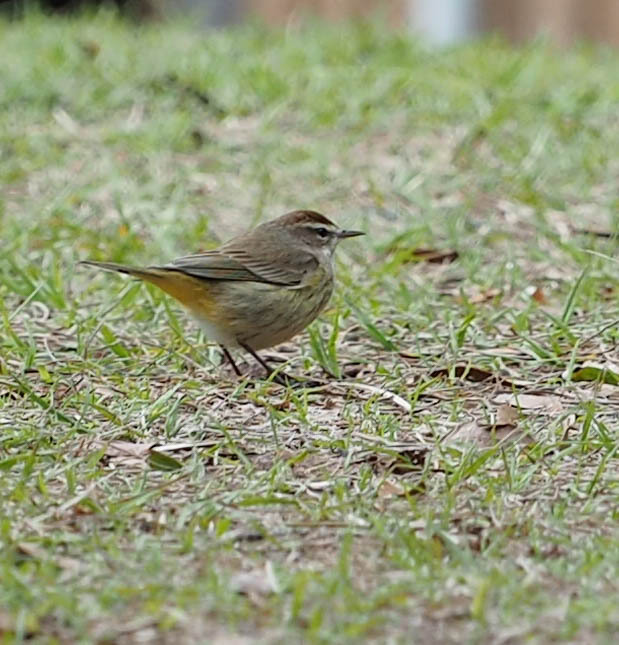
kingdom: Animalia
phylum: Chordata
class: Aves
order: Passeriformes
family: Parulidae
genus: Setophaga
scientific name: Setophaga palmarum
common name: Palm warbler
